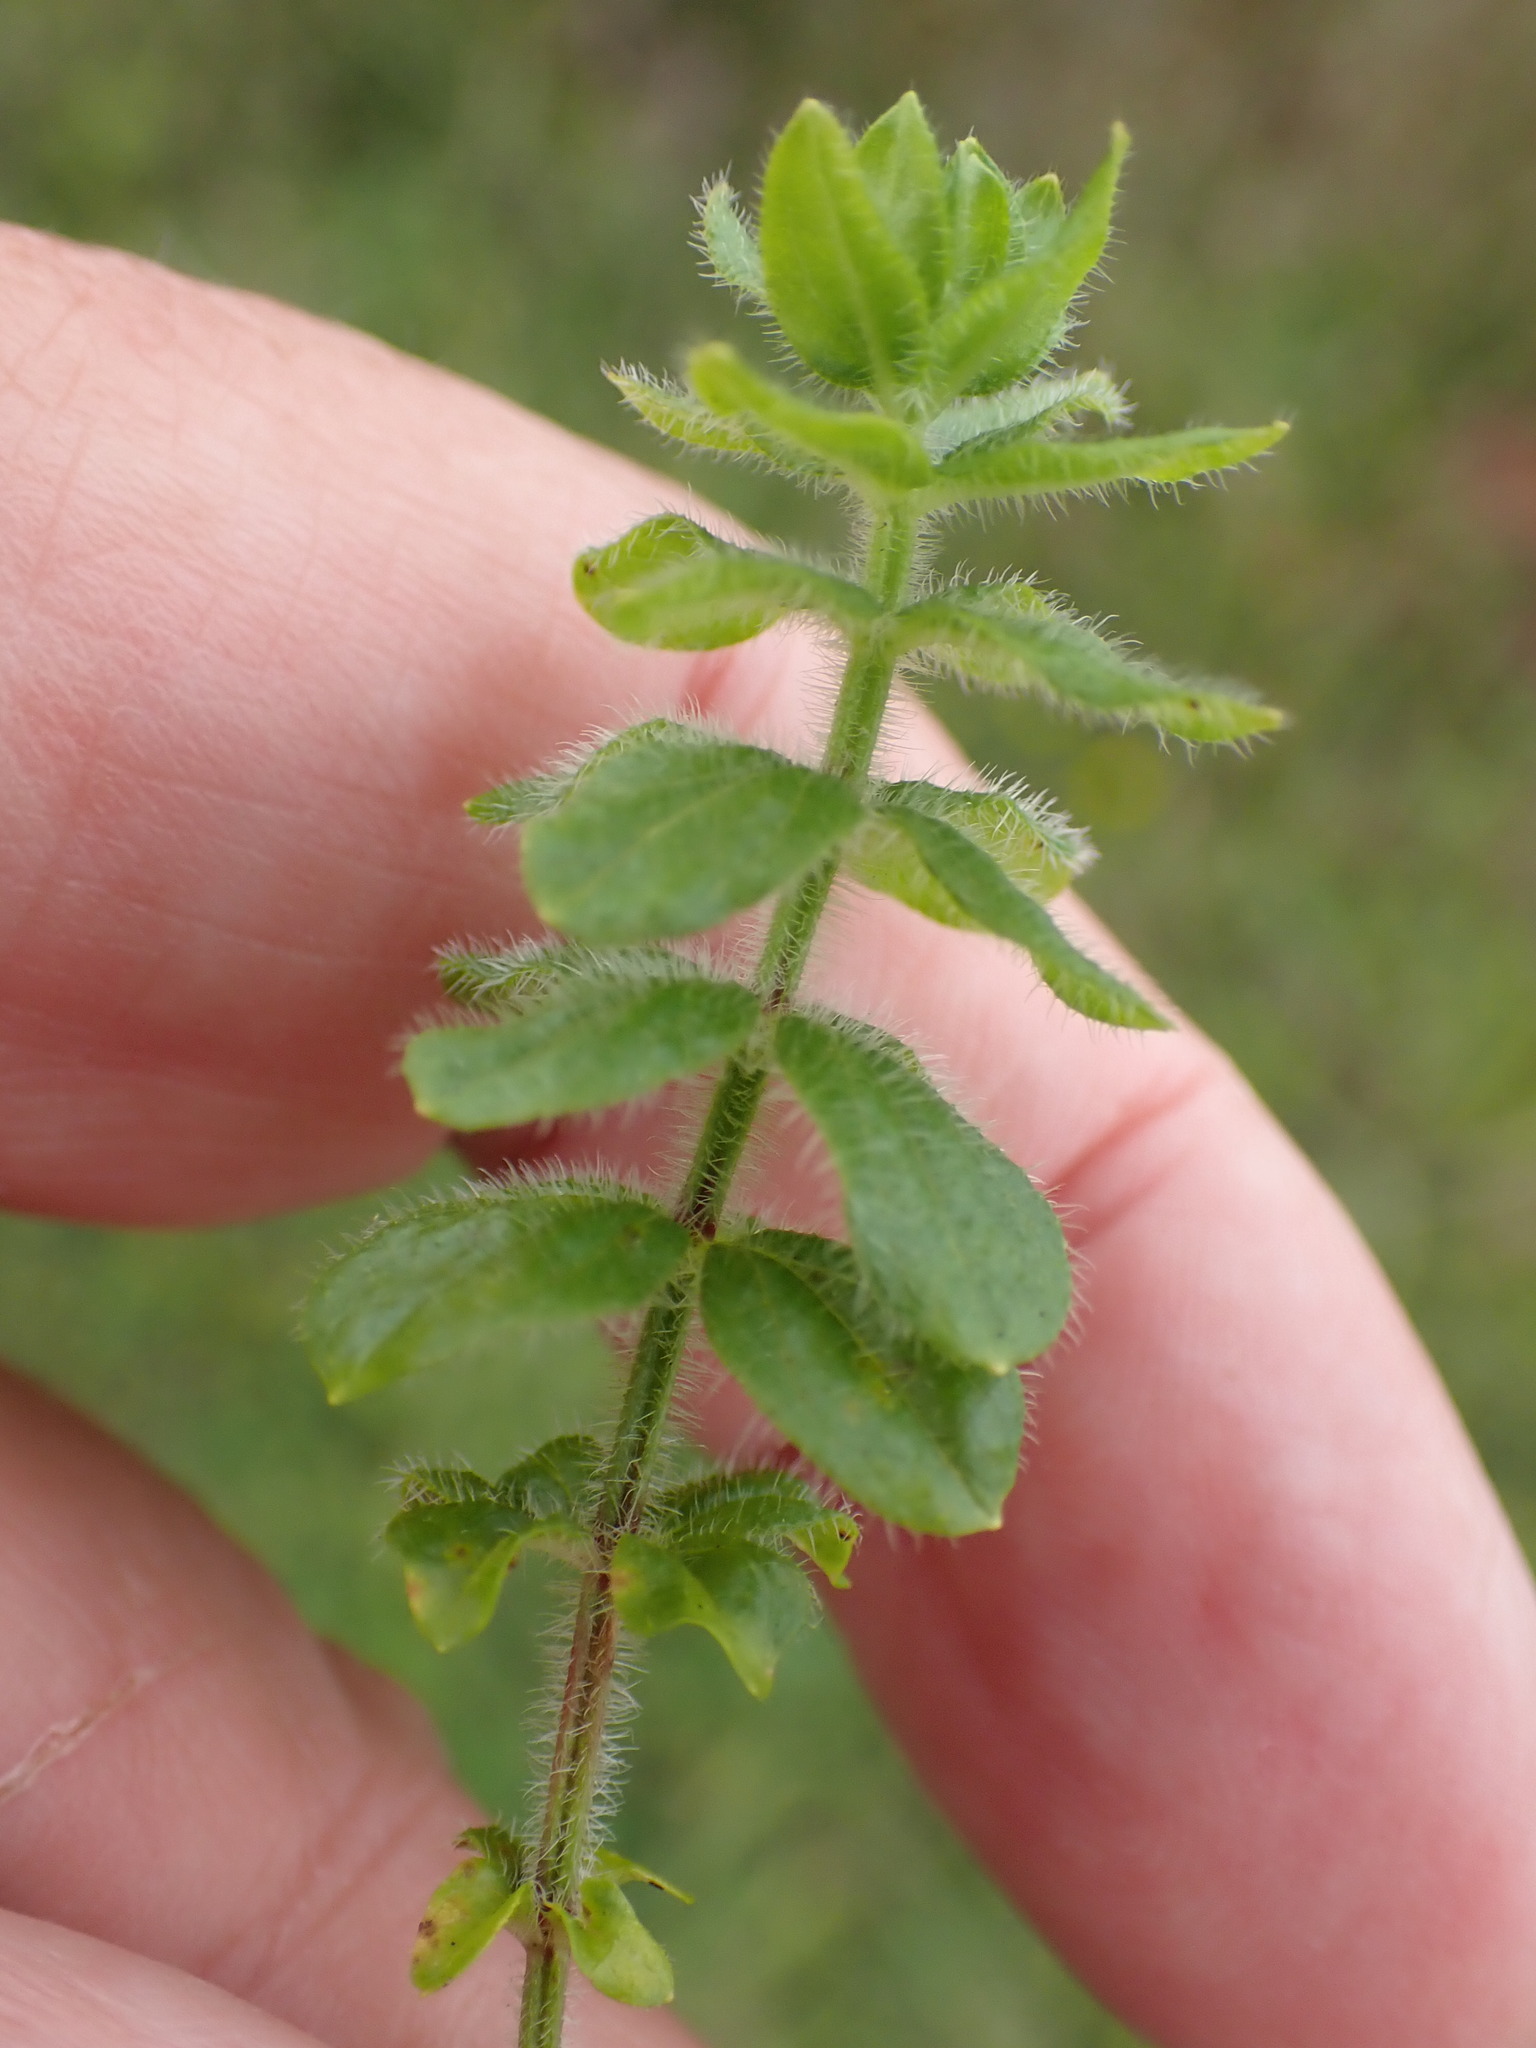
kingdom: Plantae
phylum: Tracheophyta
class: Magnoliopsida
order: Gentianales
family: Rubiaceae
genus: Cruciata
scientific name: Cruciata laevipes
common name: Crosswort
